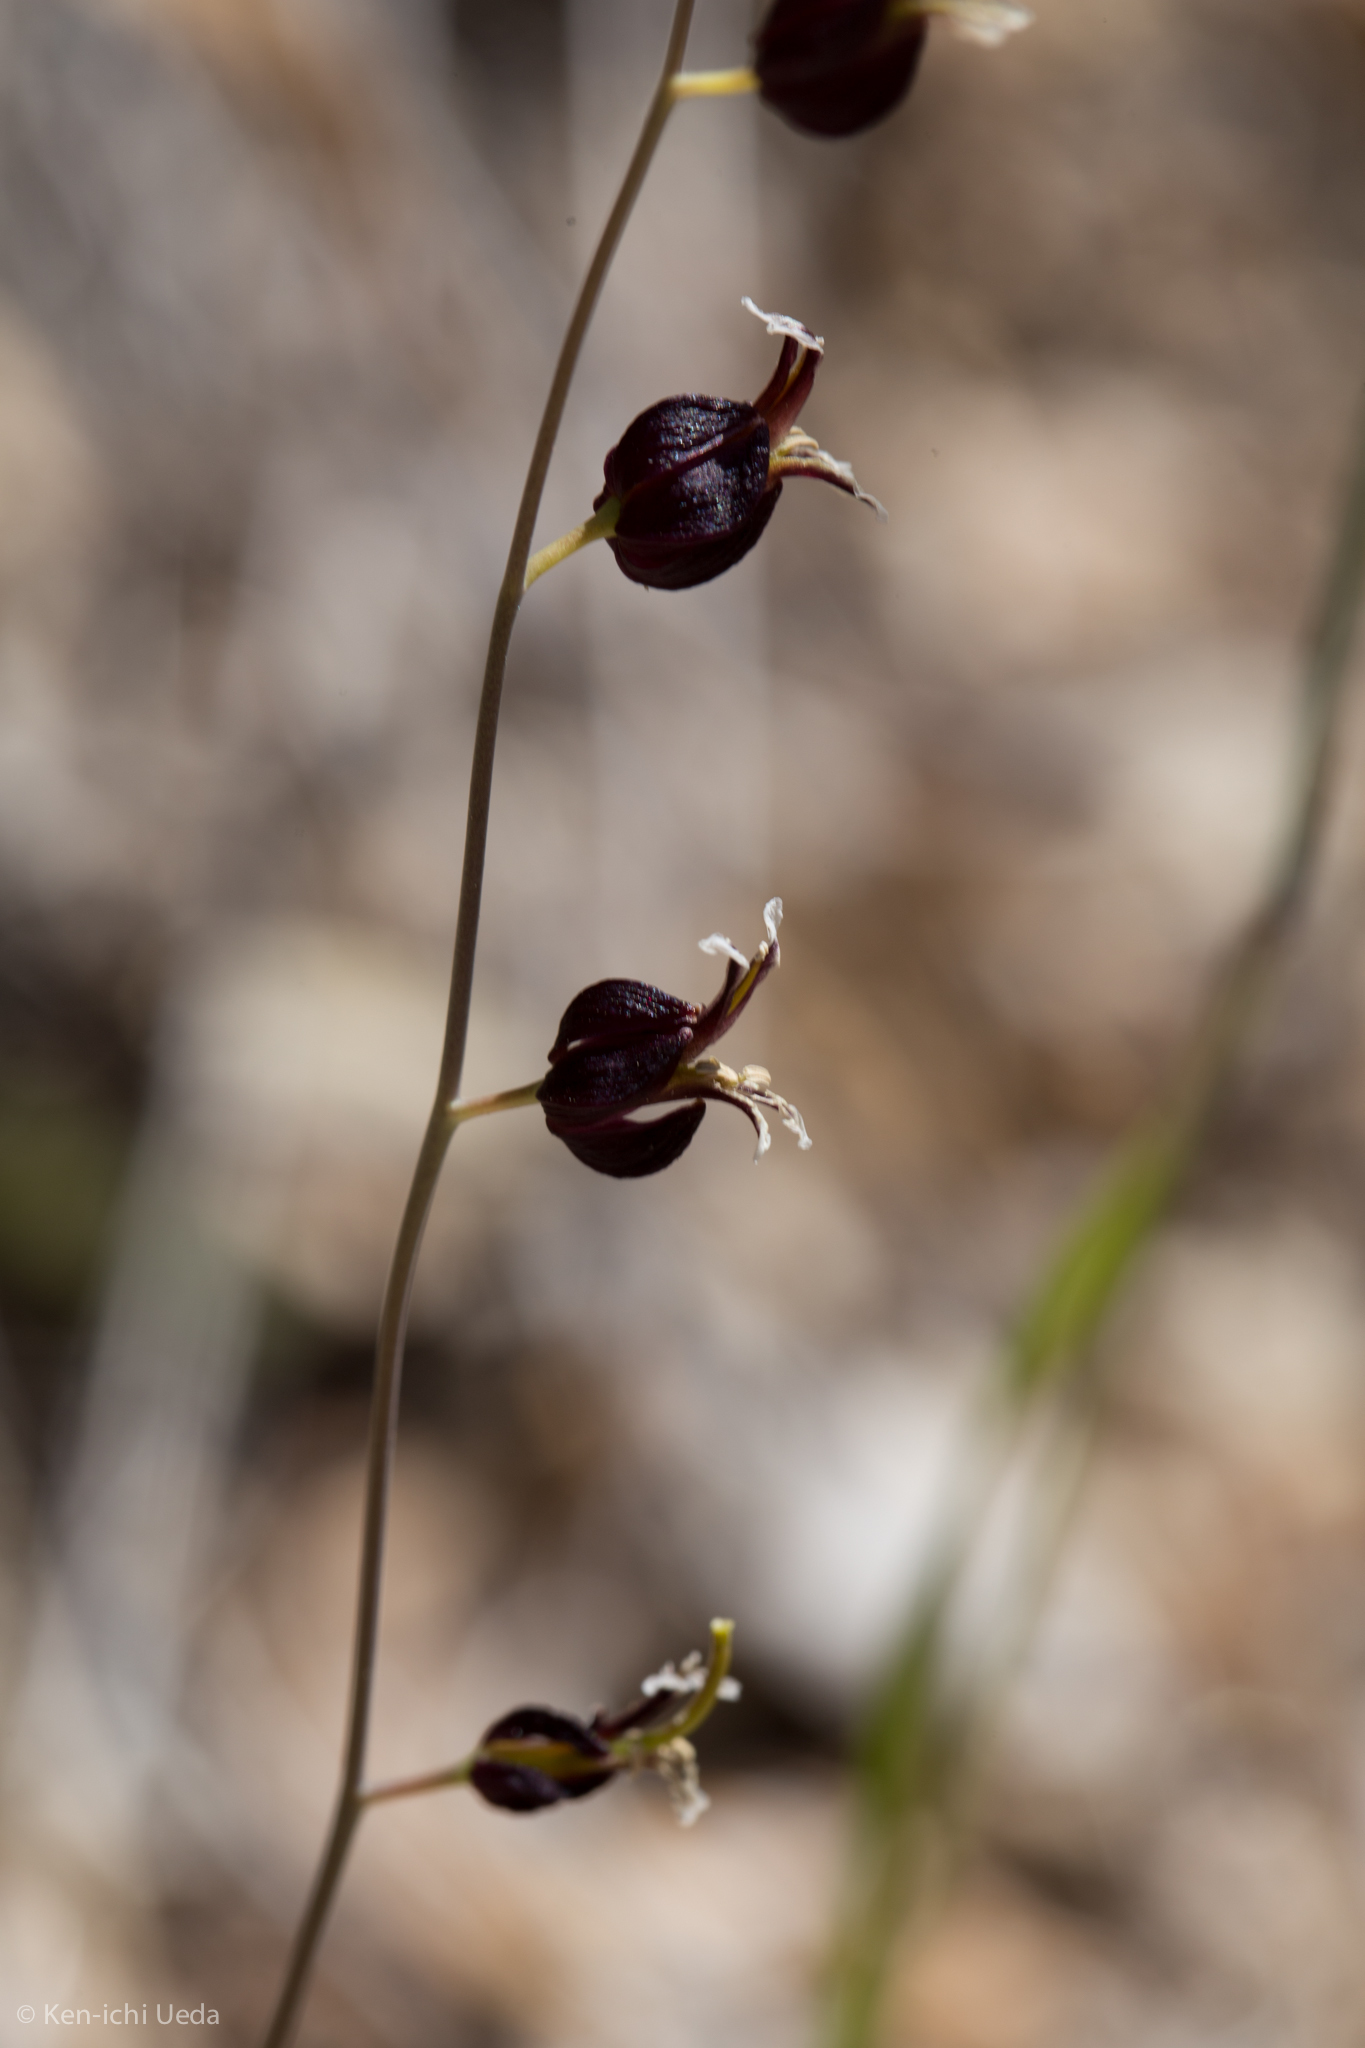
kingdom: Plantae
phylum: Tracheophyta
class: Magnoliopsida
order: Brassicales
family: Brassicaceae
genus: Streptanthus
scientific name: Streptanthus glandulosus
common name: Jewel-flower
